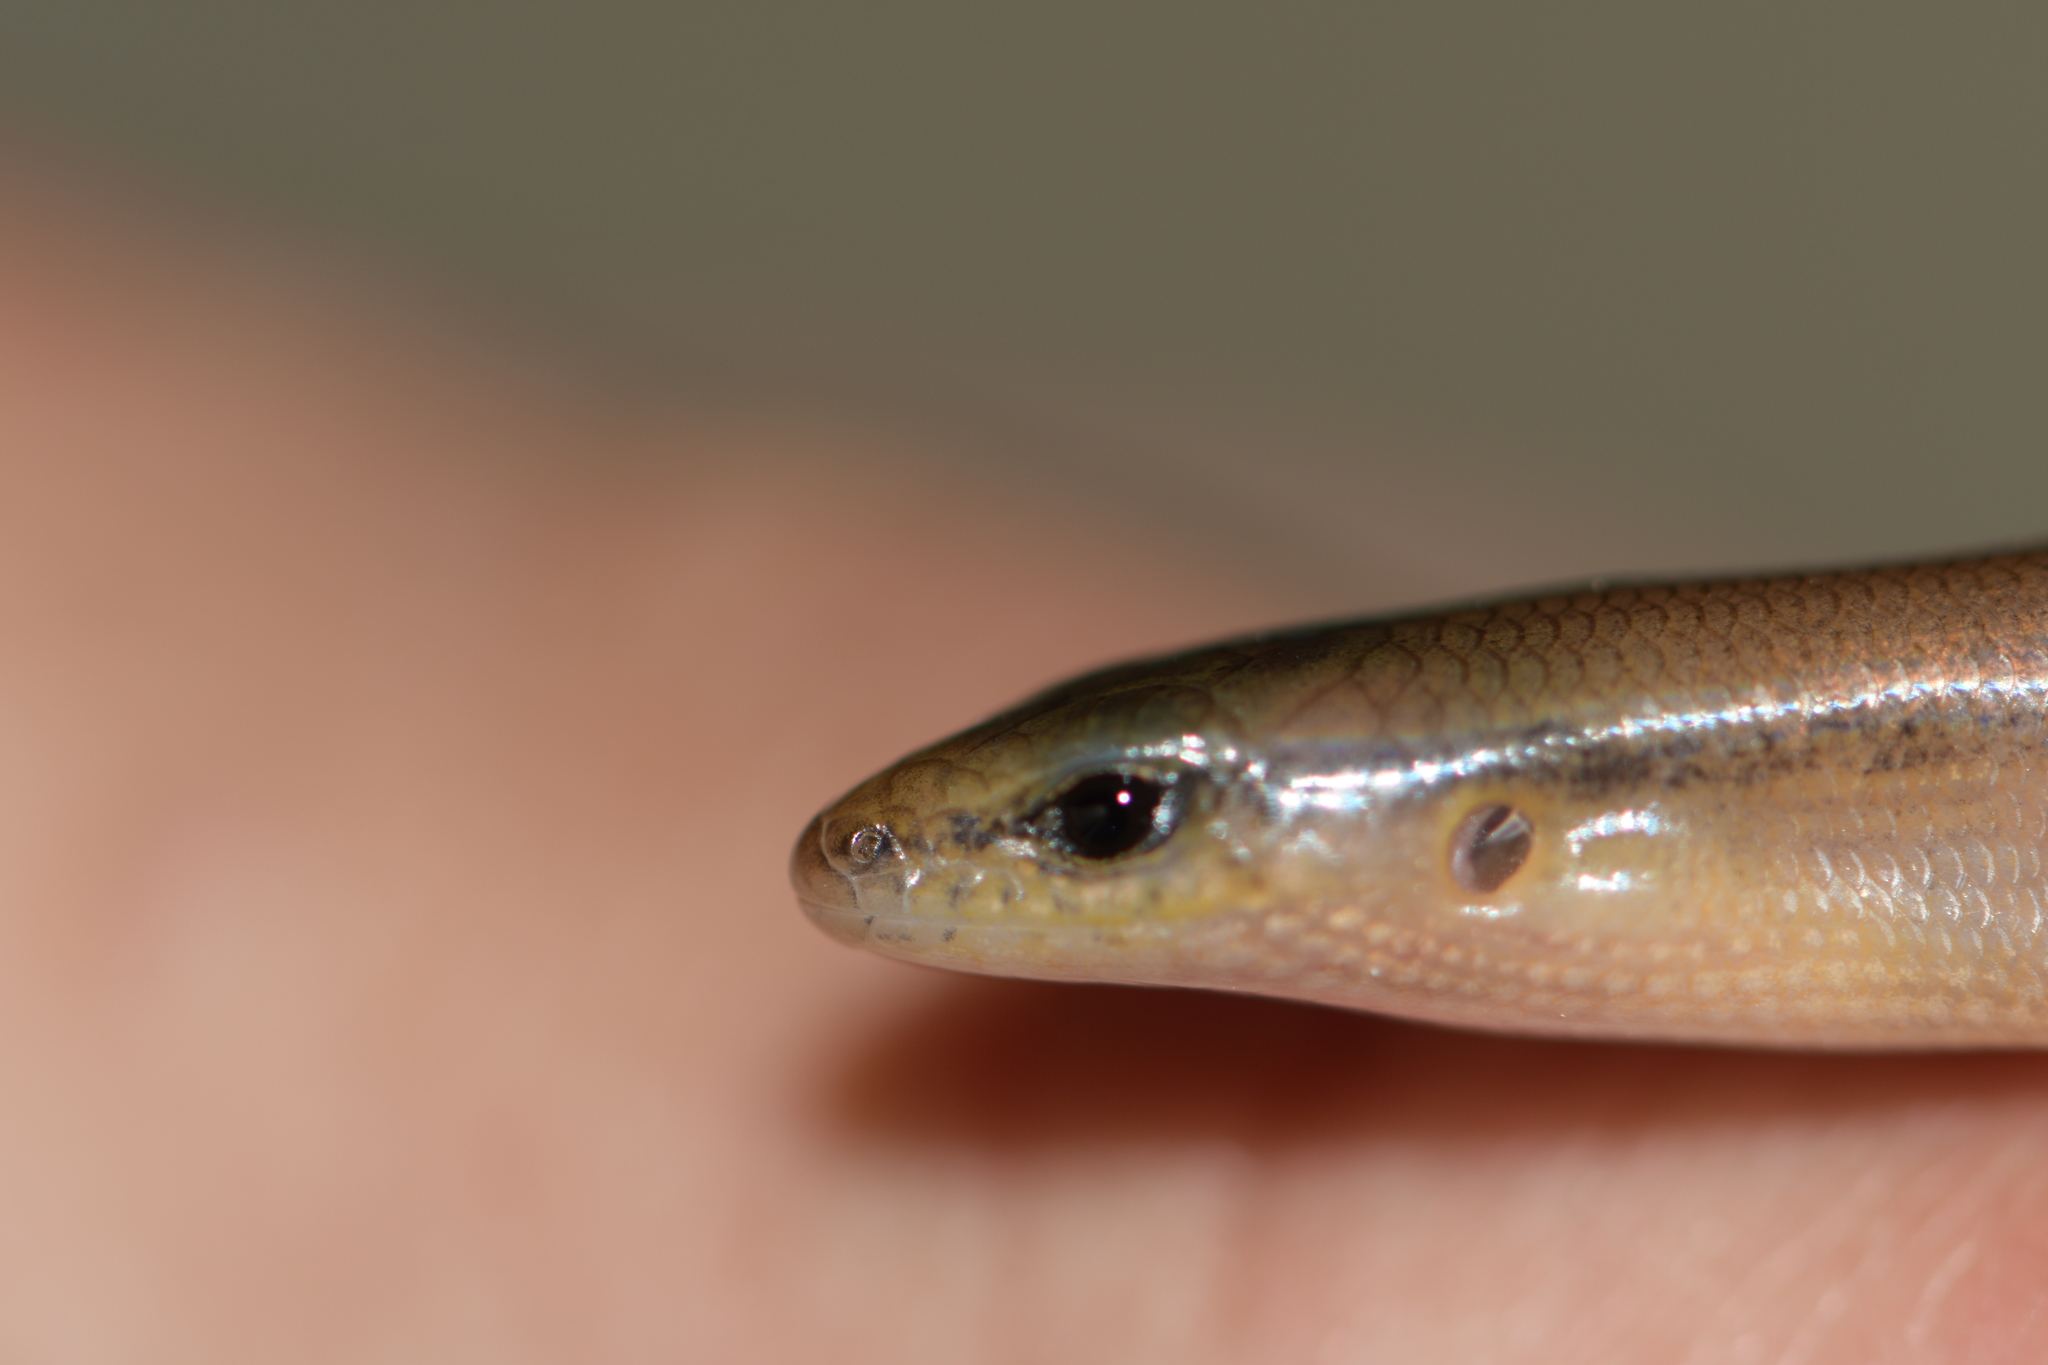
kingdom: Animalia
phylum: Chordata
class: Squamata
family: Scincidae
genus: Scincella
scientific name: Scincella assata
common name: Ground skink
